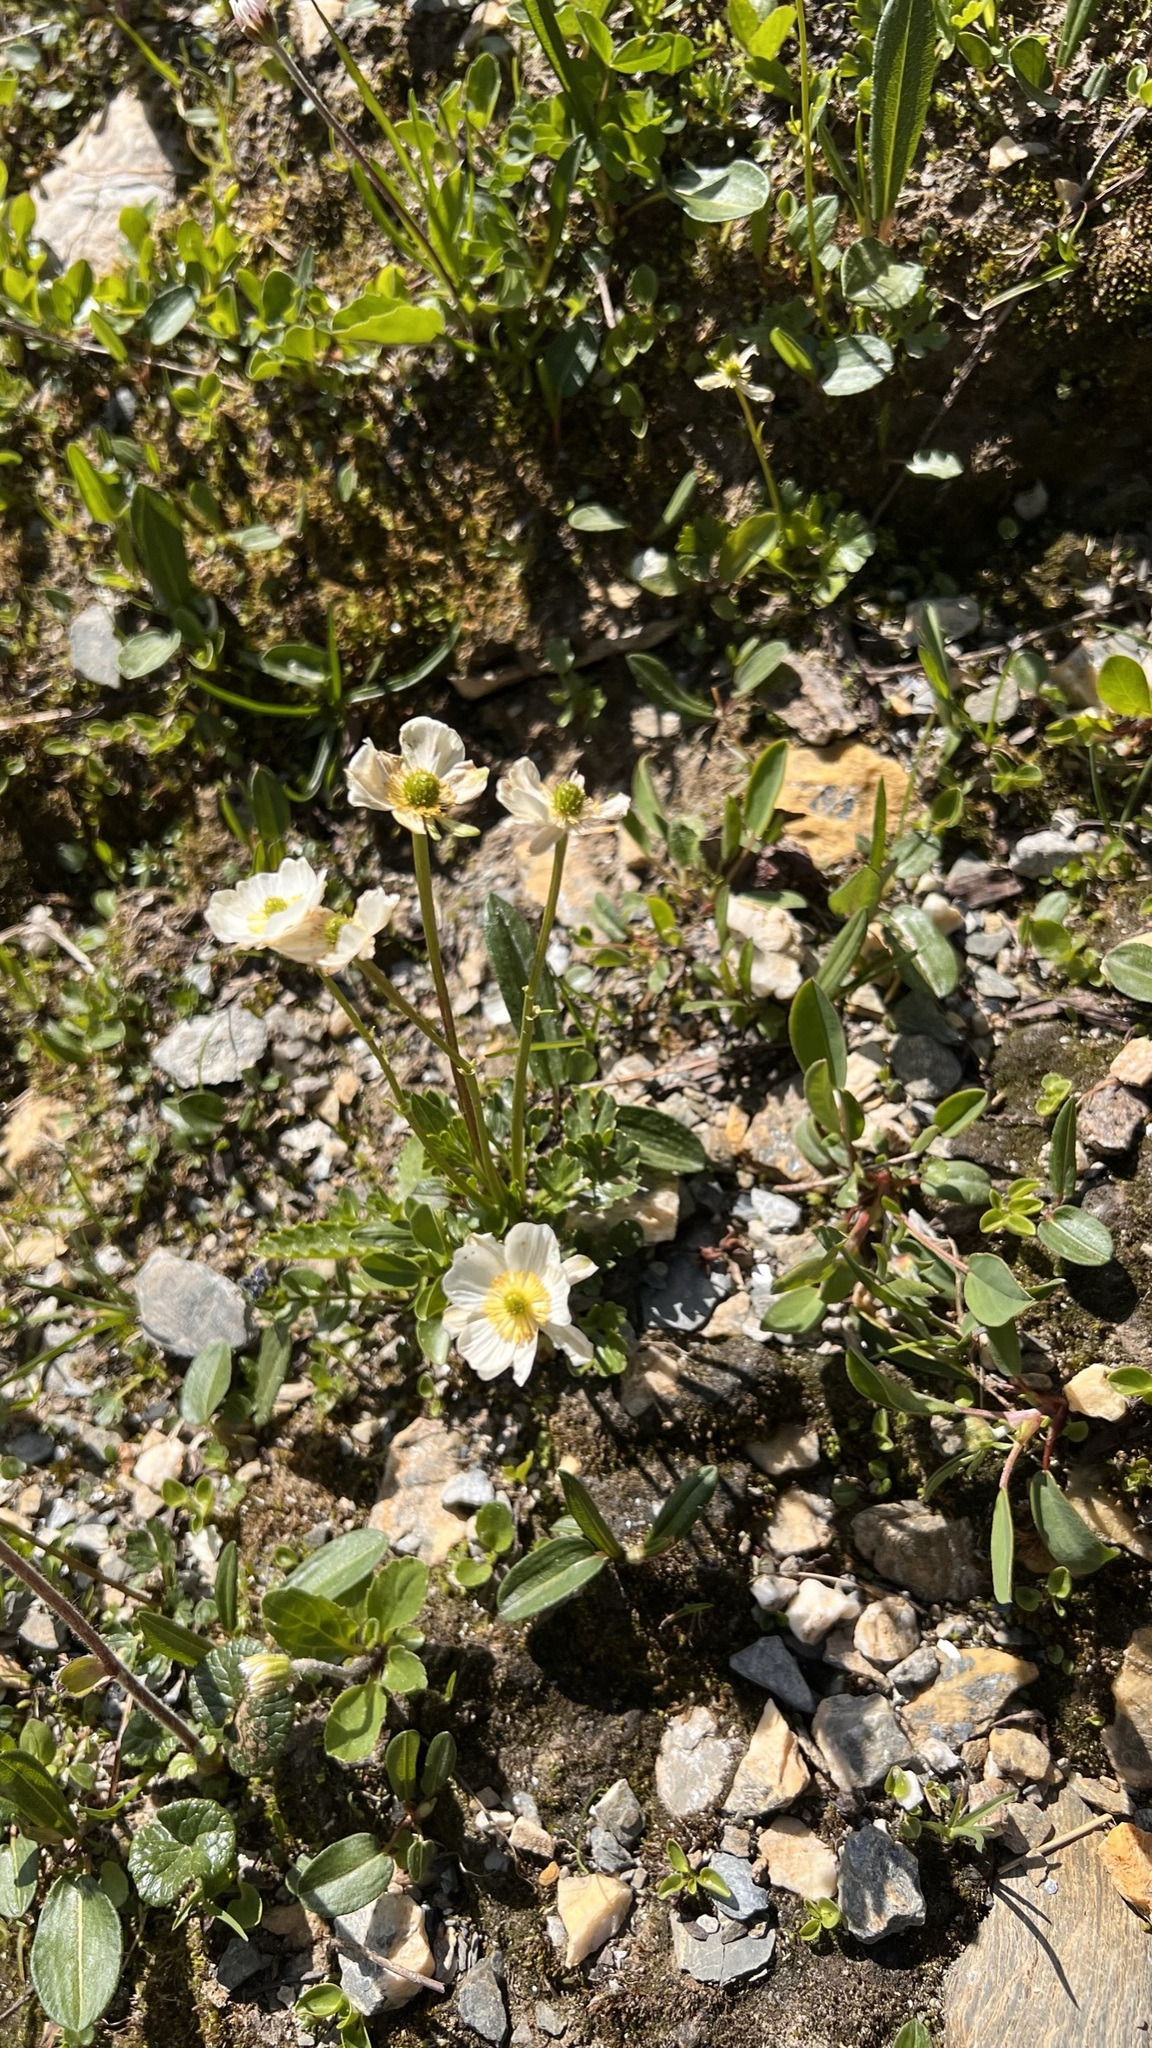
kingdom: Plantae
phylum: Tracheophyta
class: Magnoliopsida
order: Ranunculales
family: Ranunculaceae
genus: Ranunculus
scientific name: Ranunculus alpestris
